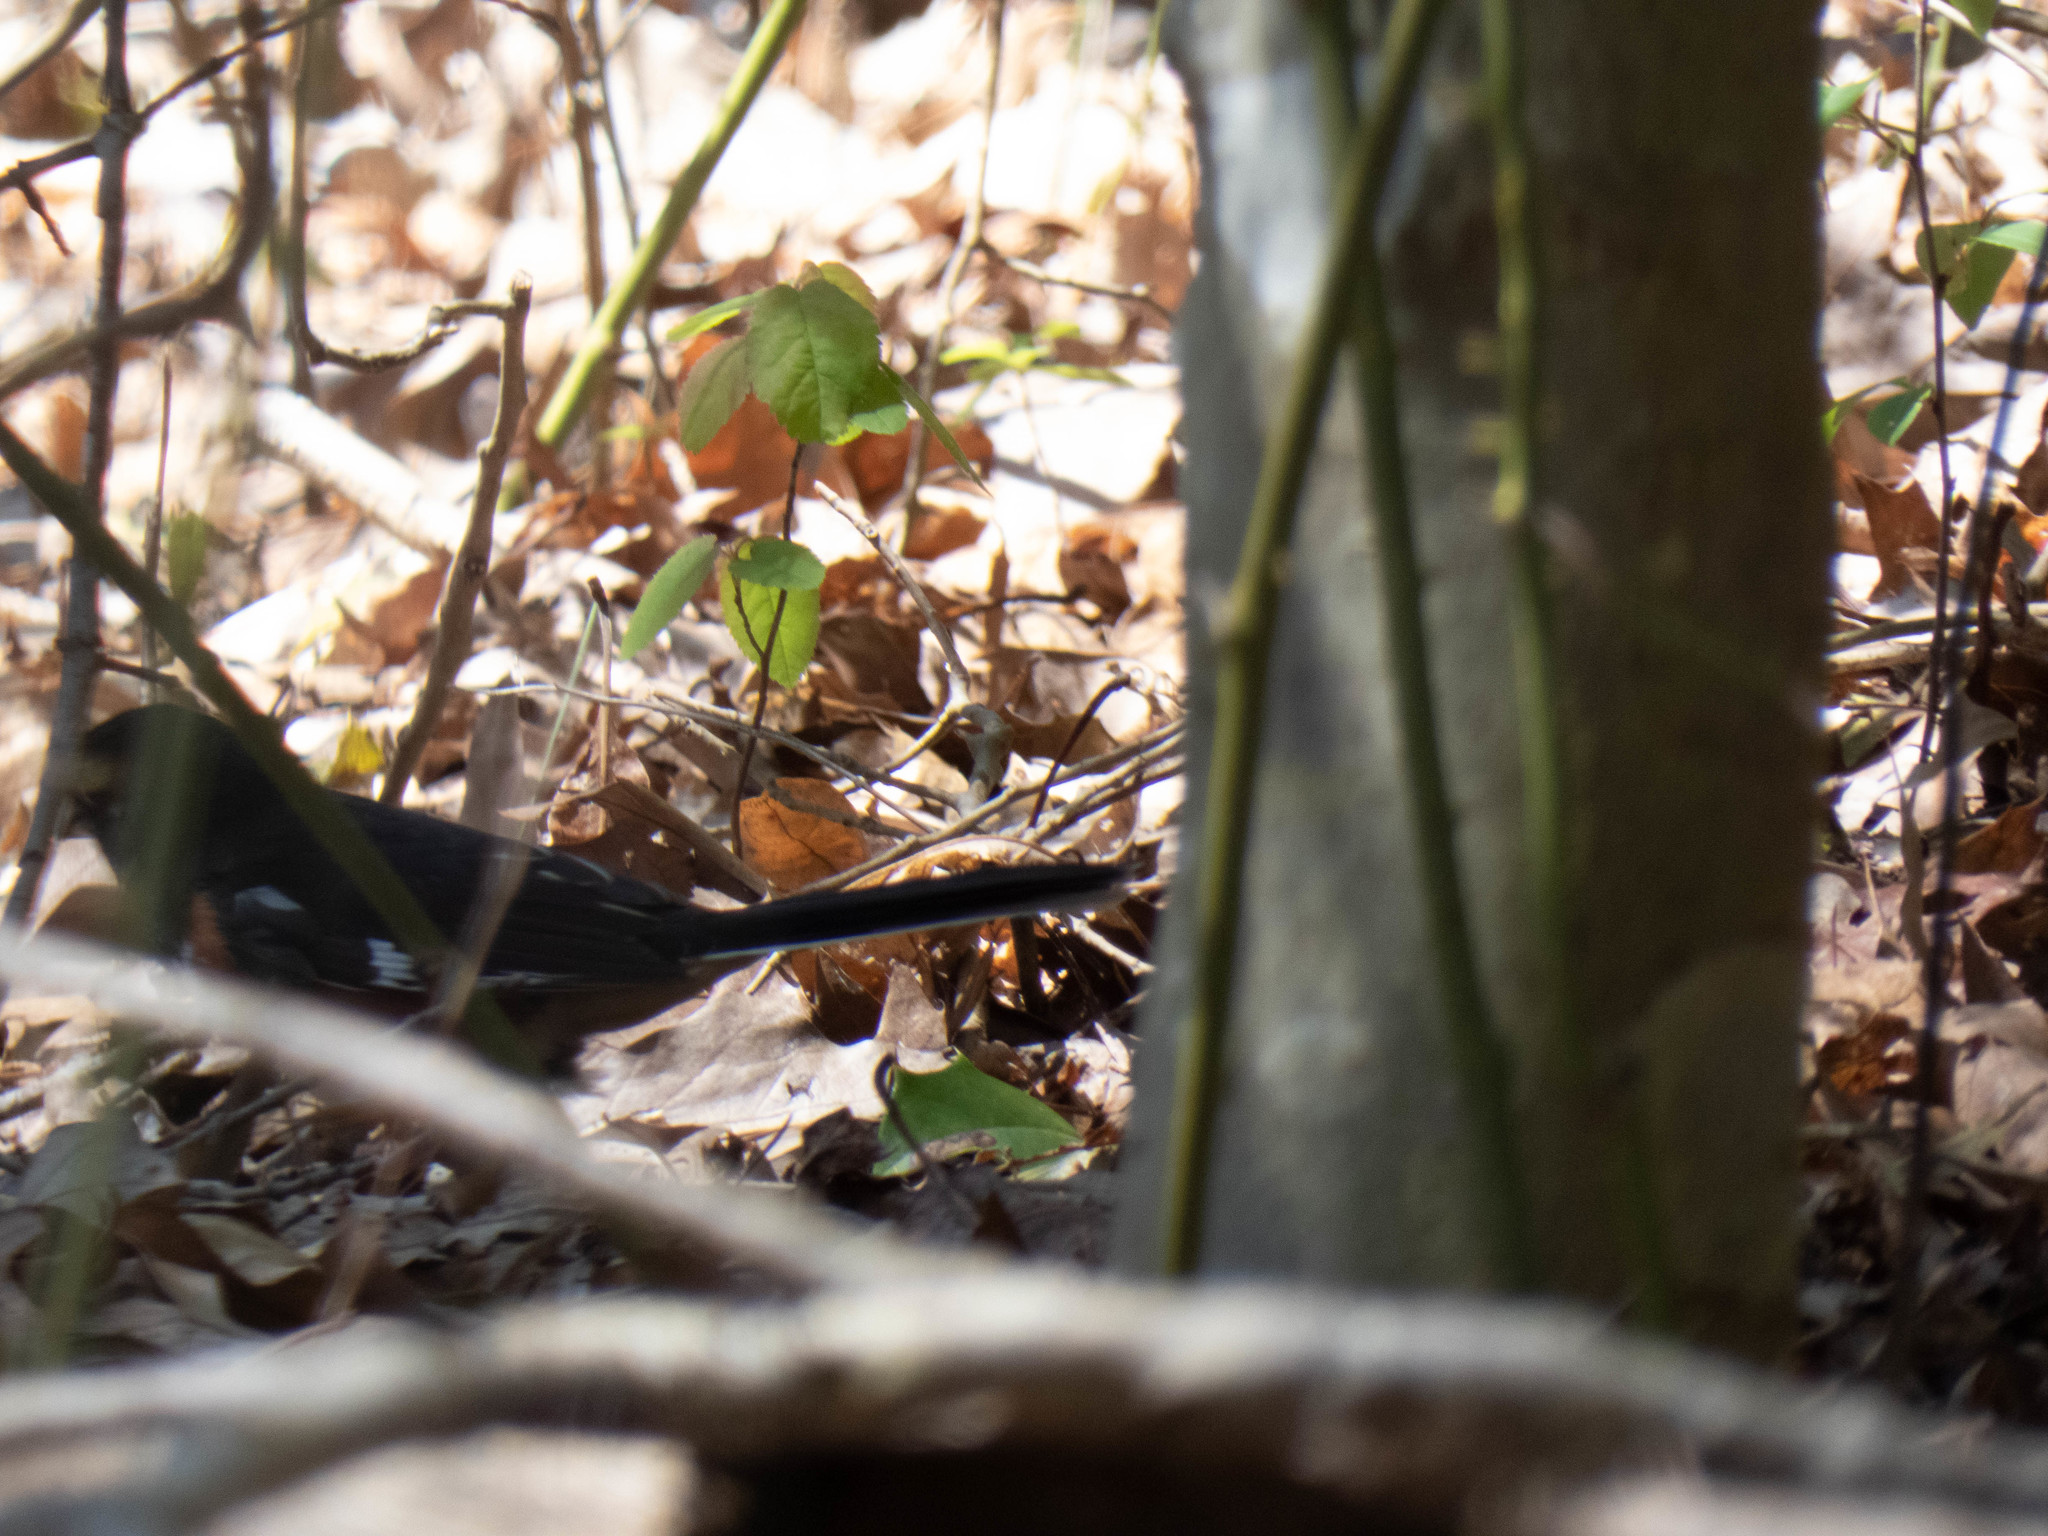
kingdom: Animalia
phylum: Chordata
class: Aves
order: Passeriformes
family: Passerellidae
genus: Pipilo
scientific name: Pipilo erythrophthalmus
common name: Eastern towhee
